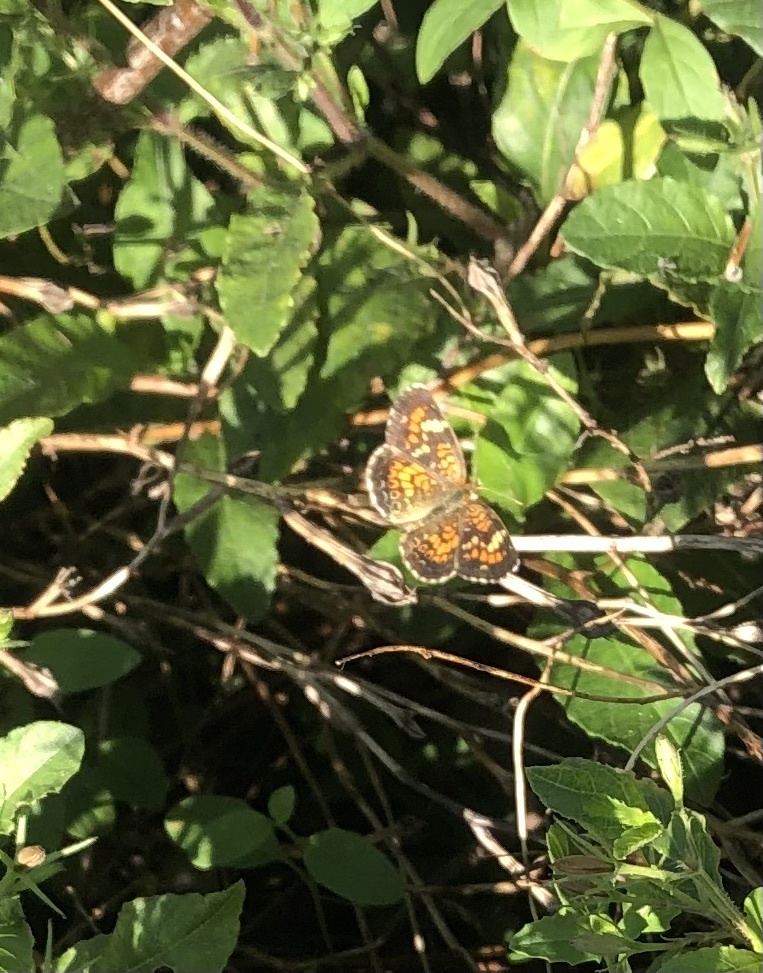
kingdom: Animalia
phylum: Arthropoda
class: Insecta
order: Lepidoptera
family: Nymphalidae
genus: Phyciodes
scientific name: Phyciodes phaon
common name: Phaon crescent
